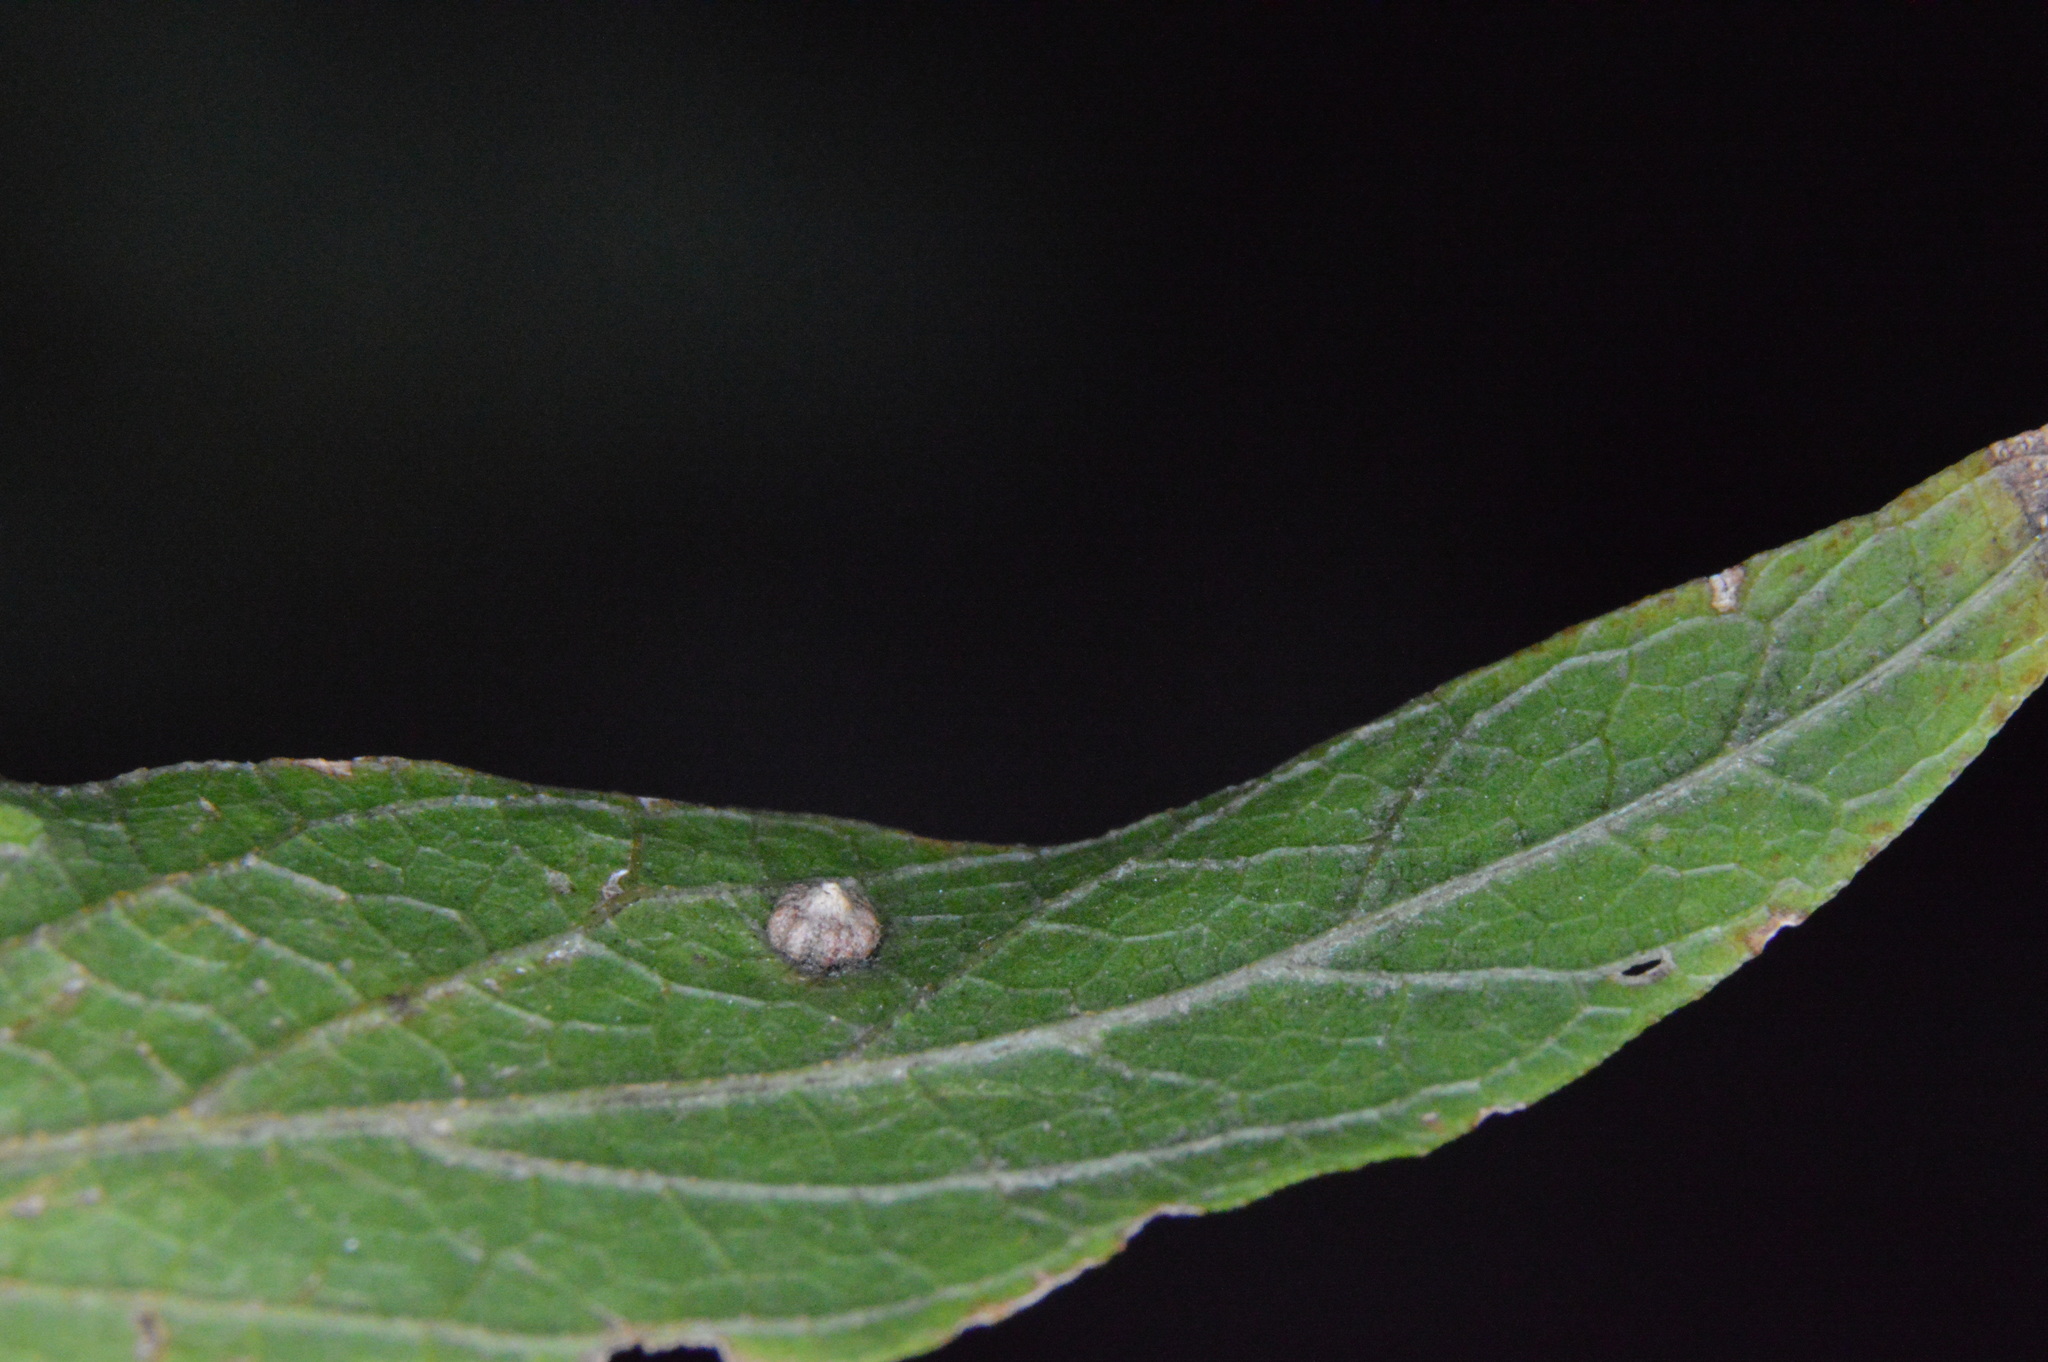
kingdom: Animalia
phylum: Arthropoda
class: Insecta
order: Diptera
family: Cecidomyiidae
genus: Celticecis
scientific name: Celticecis capsularis
